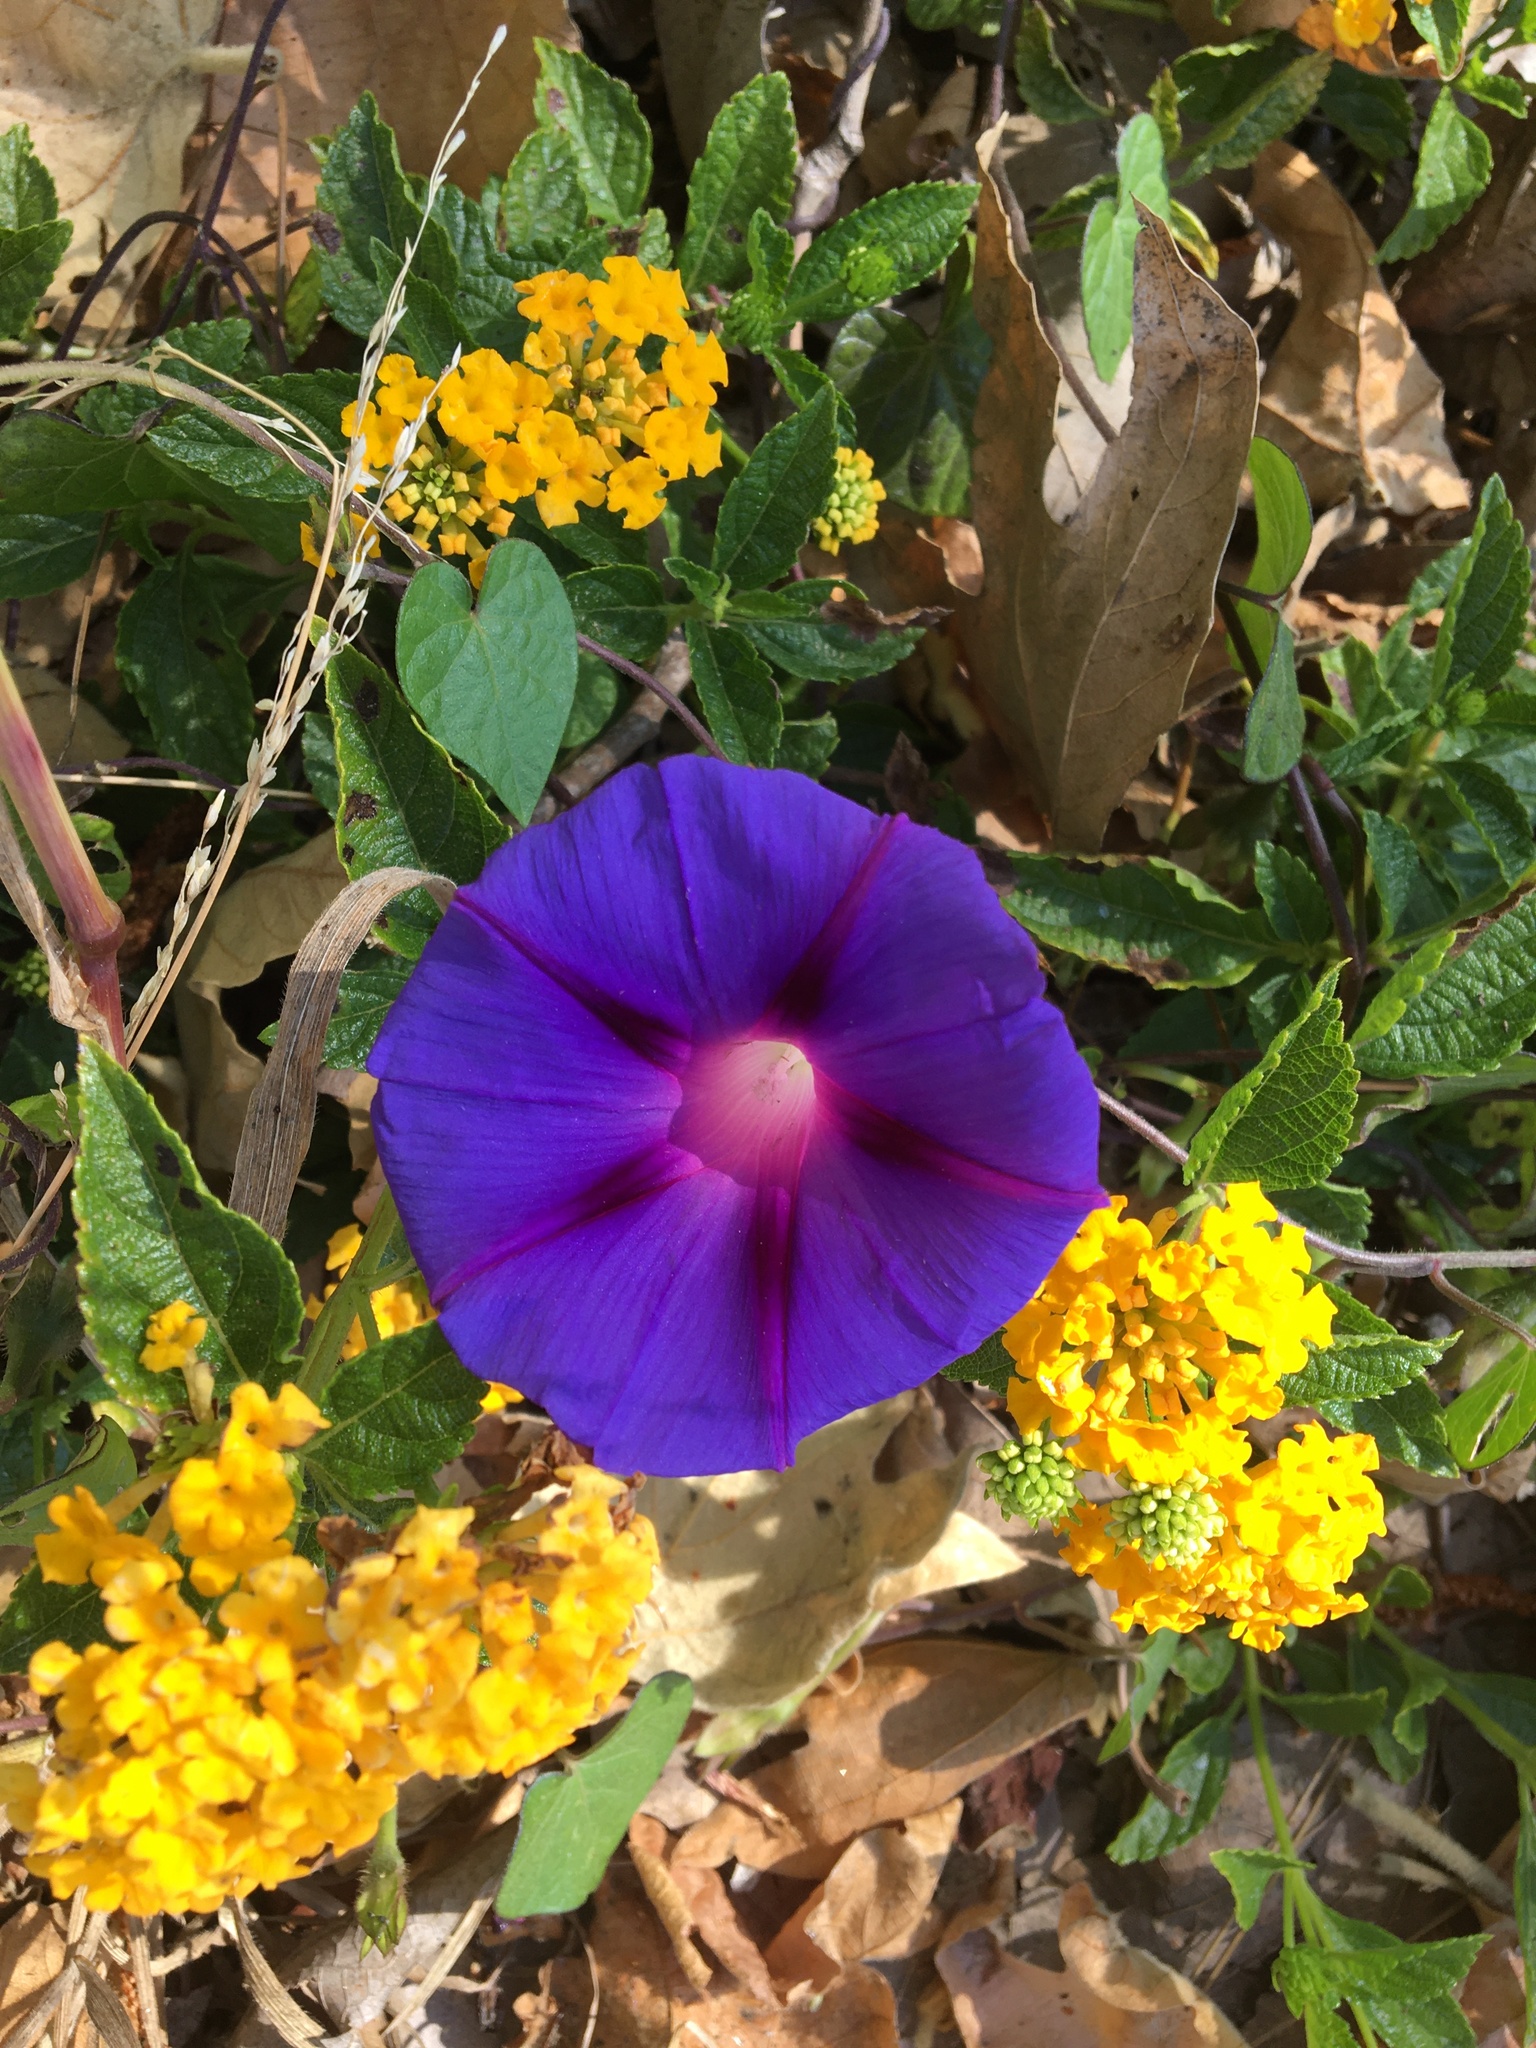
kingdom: Plantae
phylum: Tracheophyta
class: Magnoliopsida
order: Solanales
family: Convolvulaceae
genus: Ipomoea
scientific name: Ipomoea purpurea
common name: Common morning-glory
